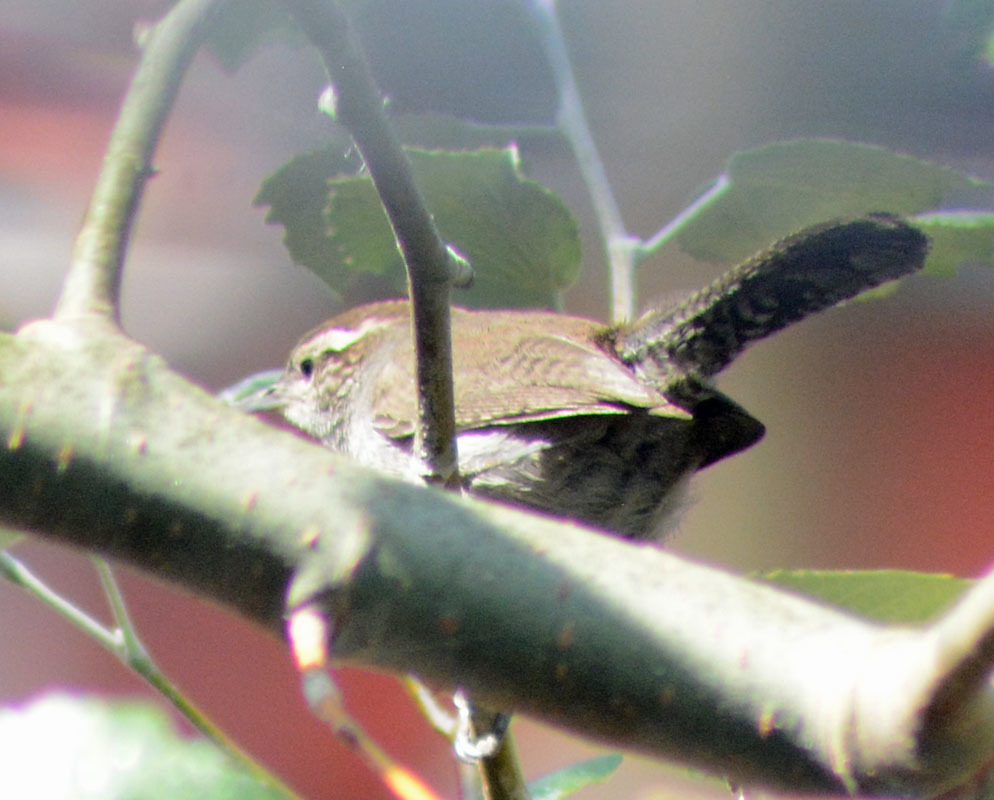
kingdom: Animalia
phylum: Chordata
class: Aves
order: Passeriformes
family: Troglodytidae
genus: Thryomanes
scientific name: Thryomanes bewickii
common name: Bewick's wren
